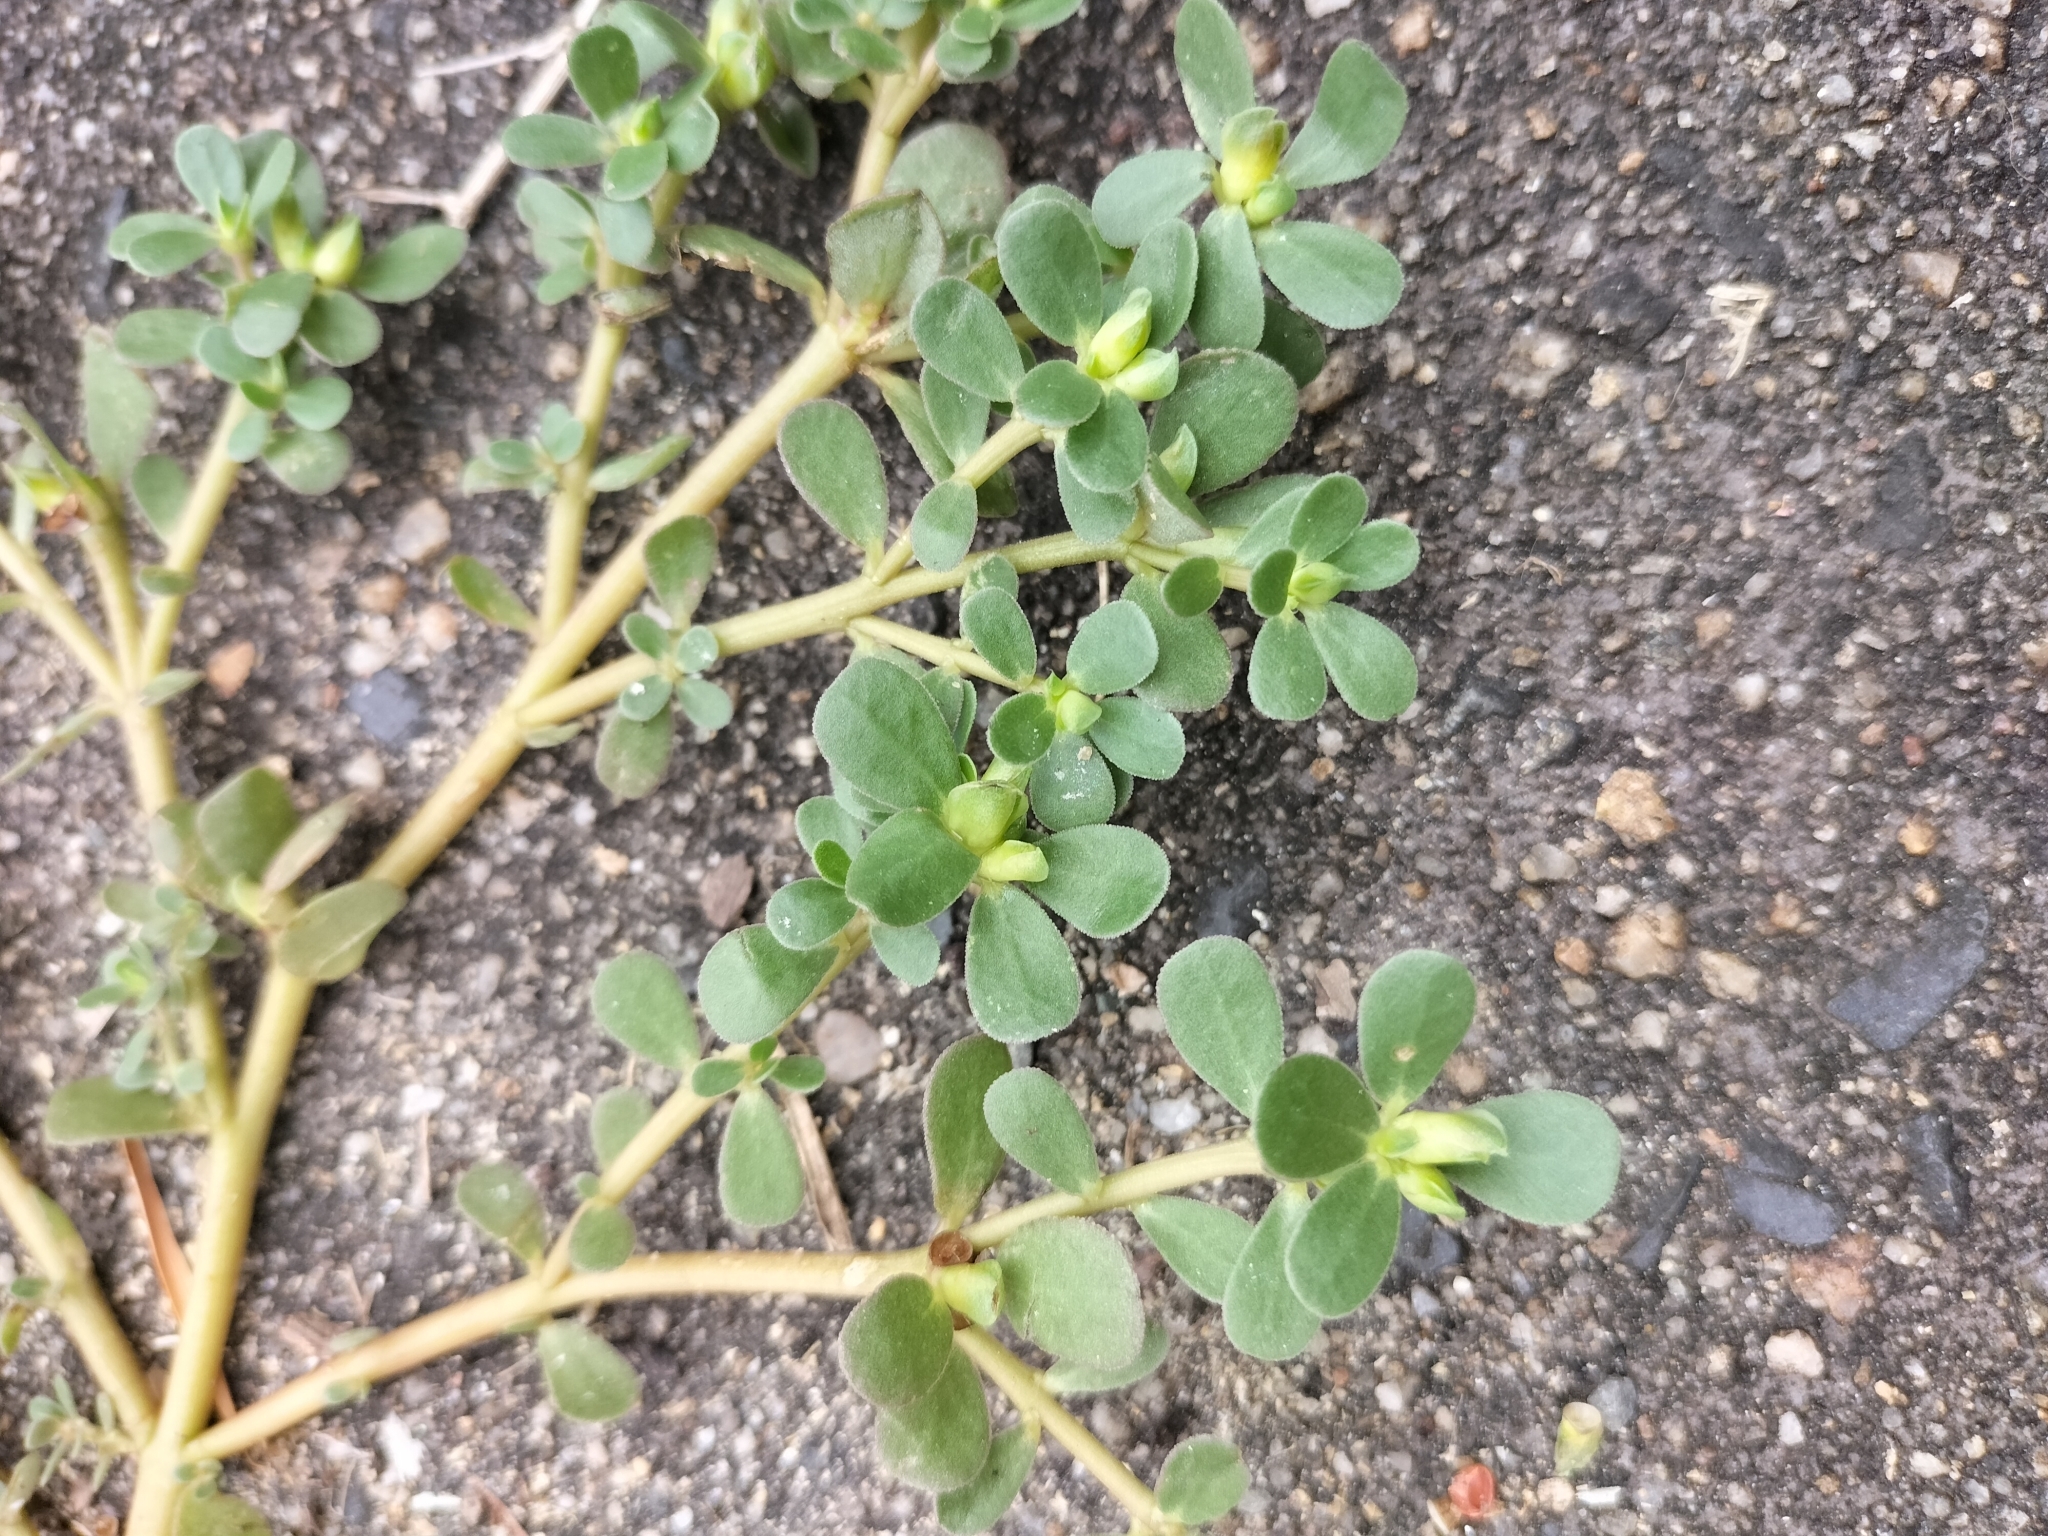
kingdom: Plantae
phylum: Tracheophyta
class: Magnoliopsida
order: Caryophyllales
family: Portulacaceae
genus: Portulaca
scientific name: Portulaca oleracea
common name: Common purslane
